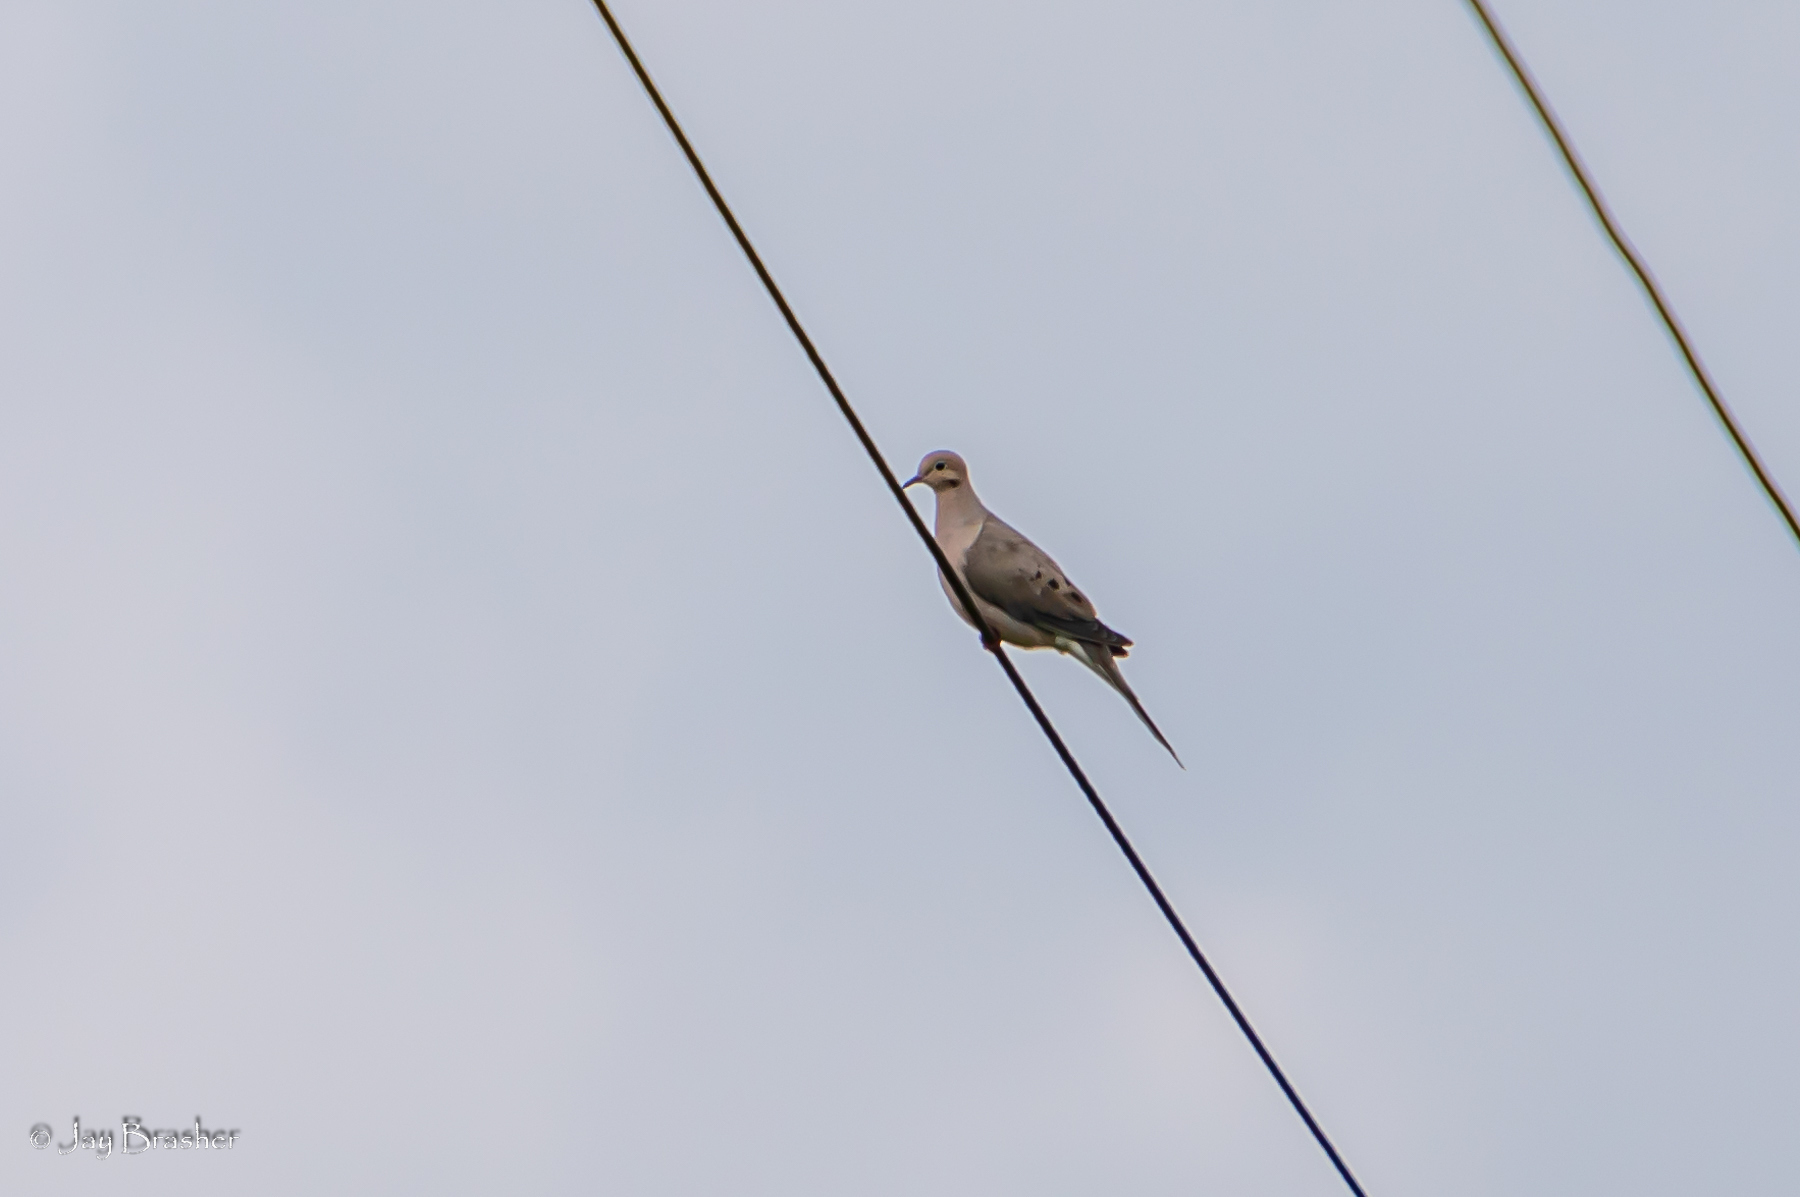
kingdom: Animalia
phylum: Chordata
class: Aves
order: Columbiformes
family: Columbidae
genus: Zenaida
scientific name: Zenaida macroura
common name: Mourning dove
